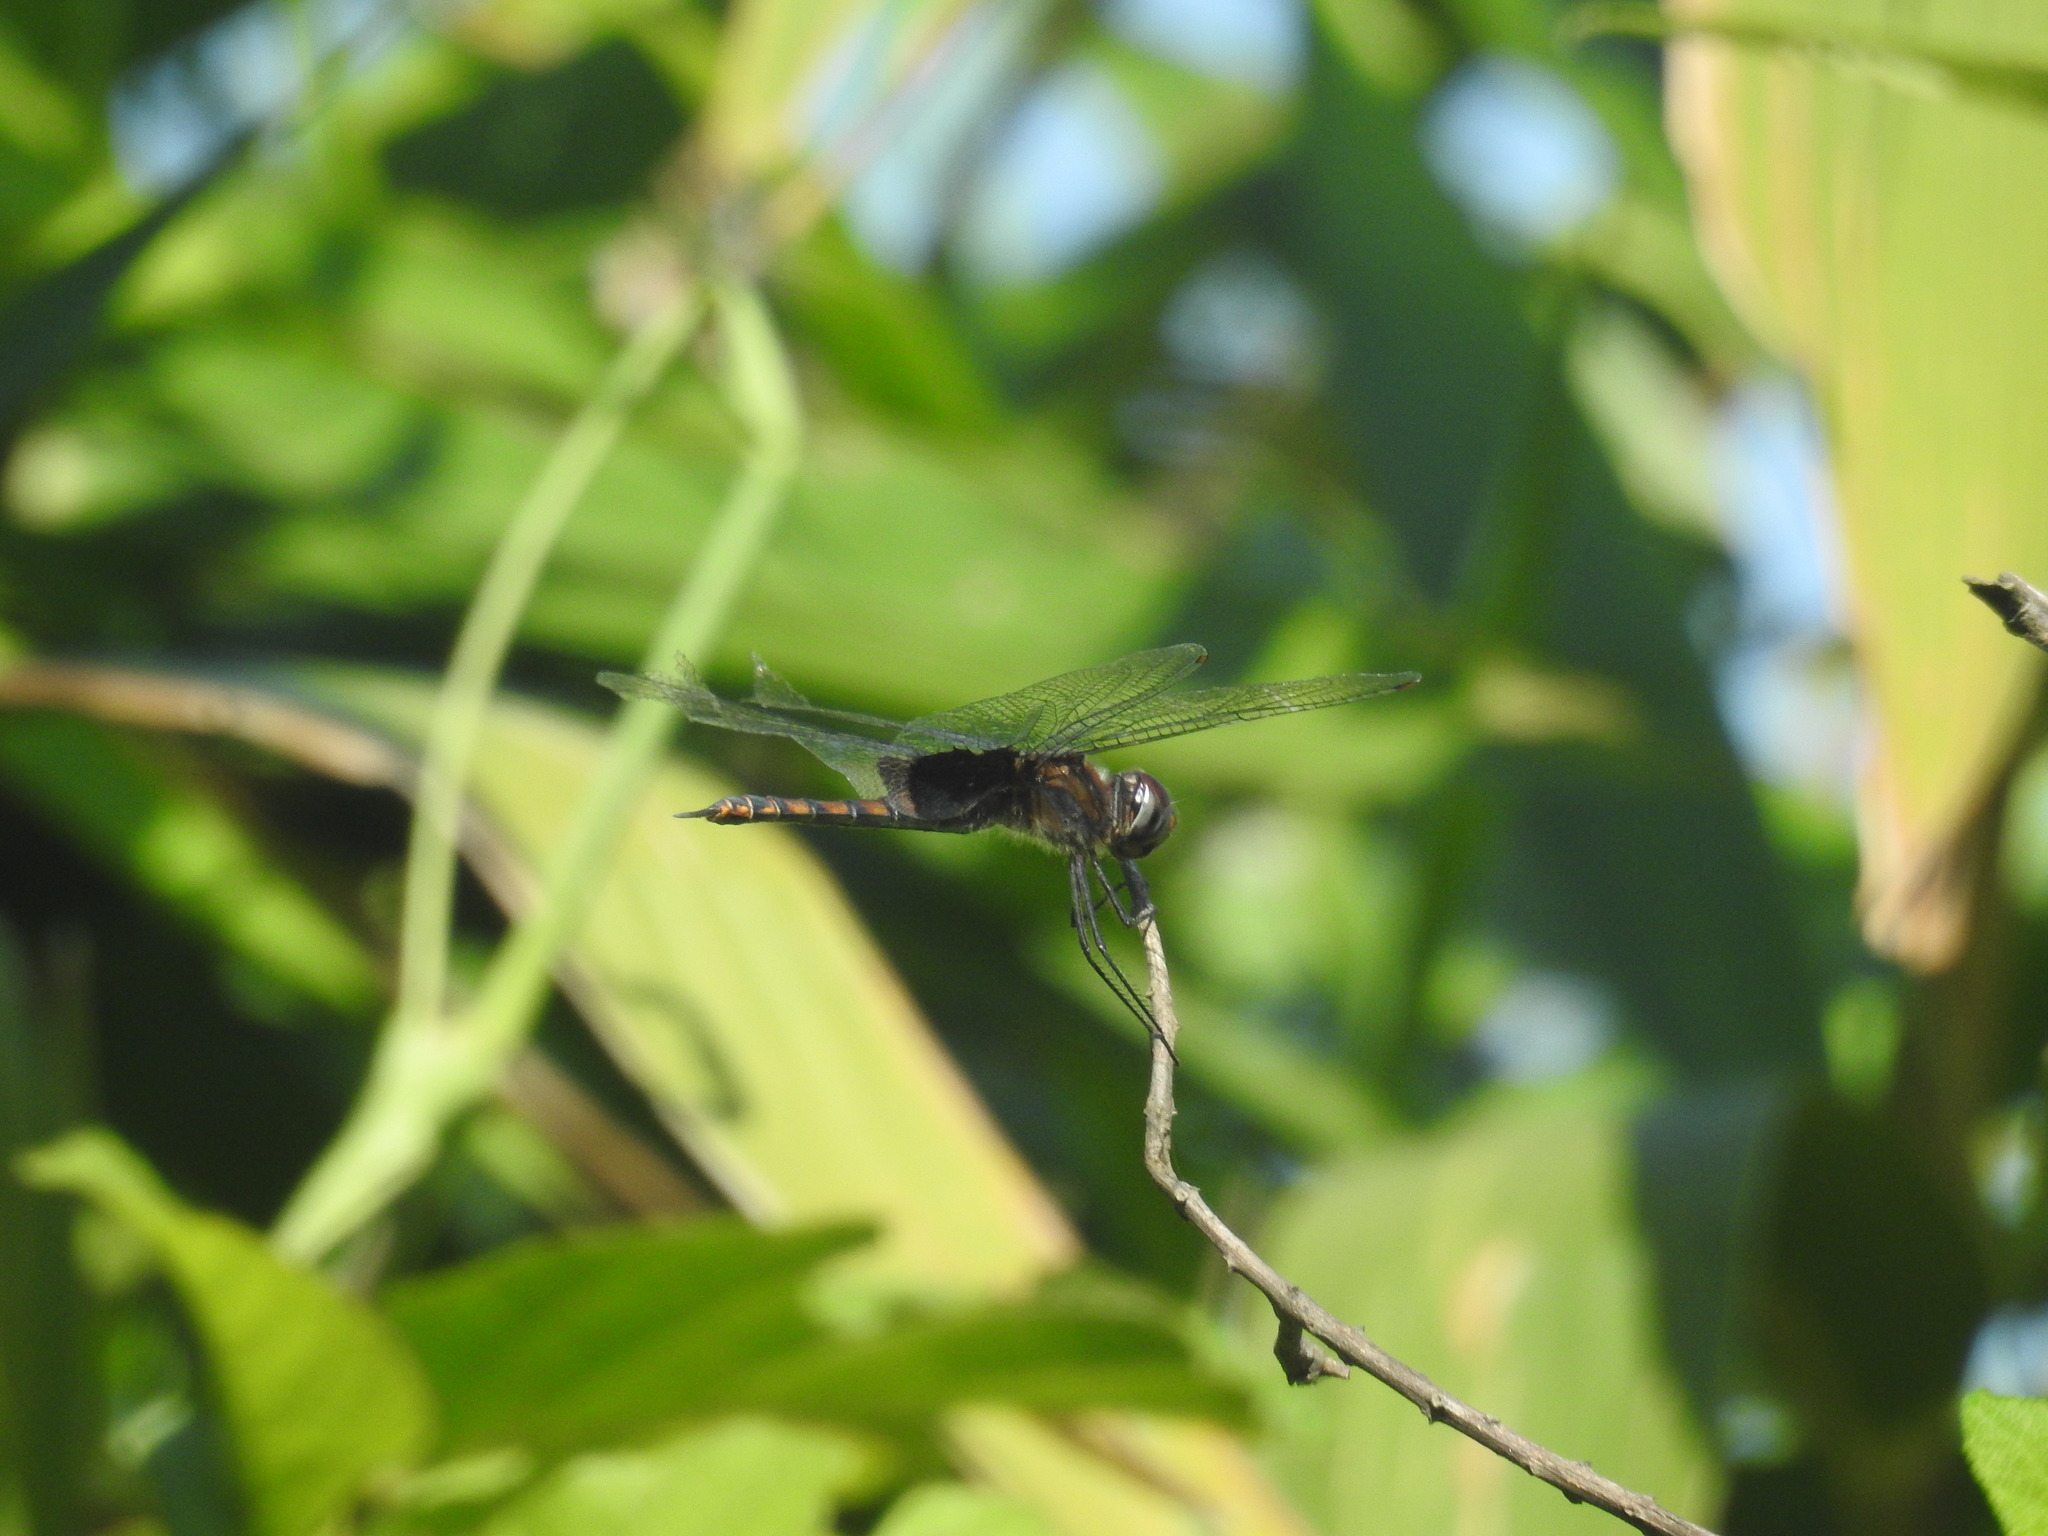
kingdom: Animalia
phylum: Arthropoda
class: Insecta
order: Odonata
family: Libellulidae
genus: Tramea
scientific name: Tramea limbata
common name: Ferruginous glider
